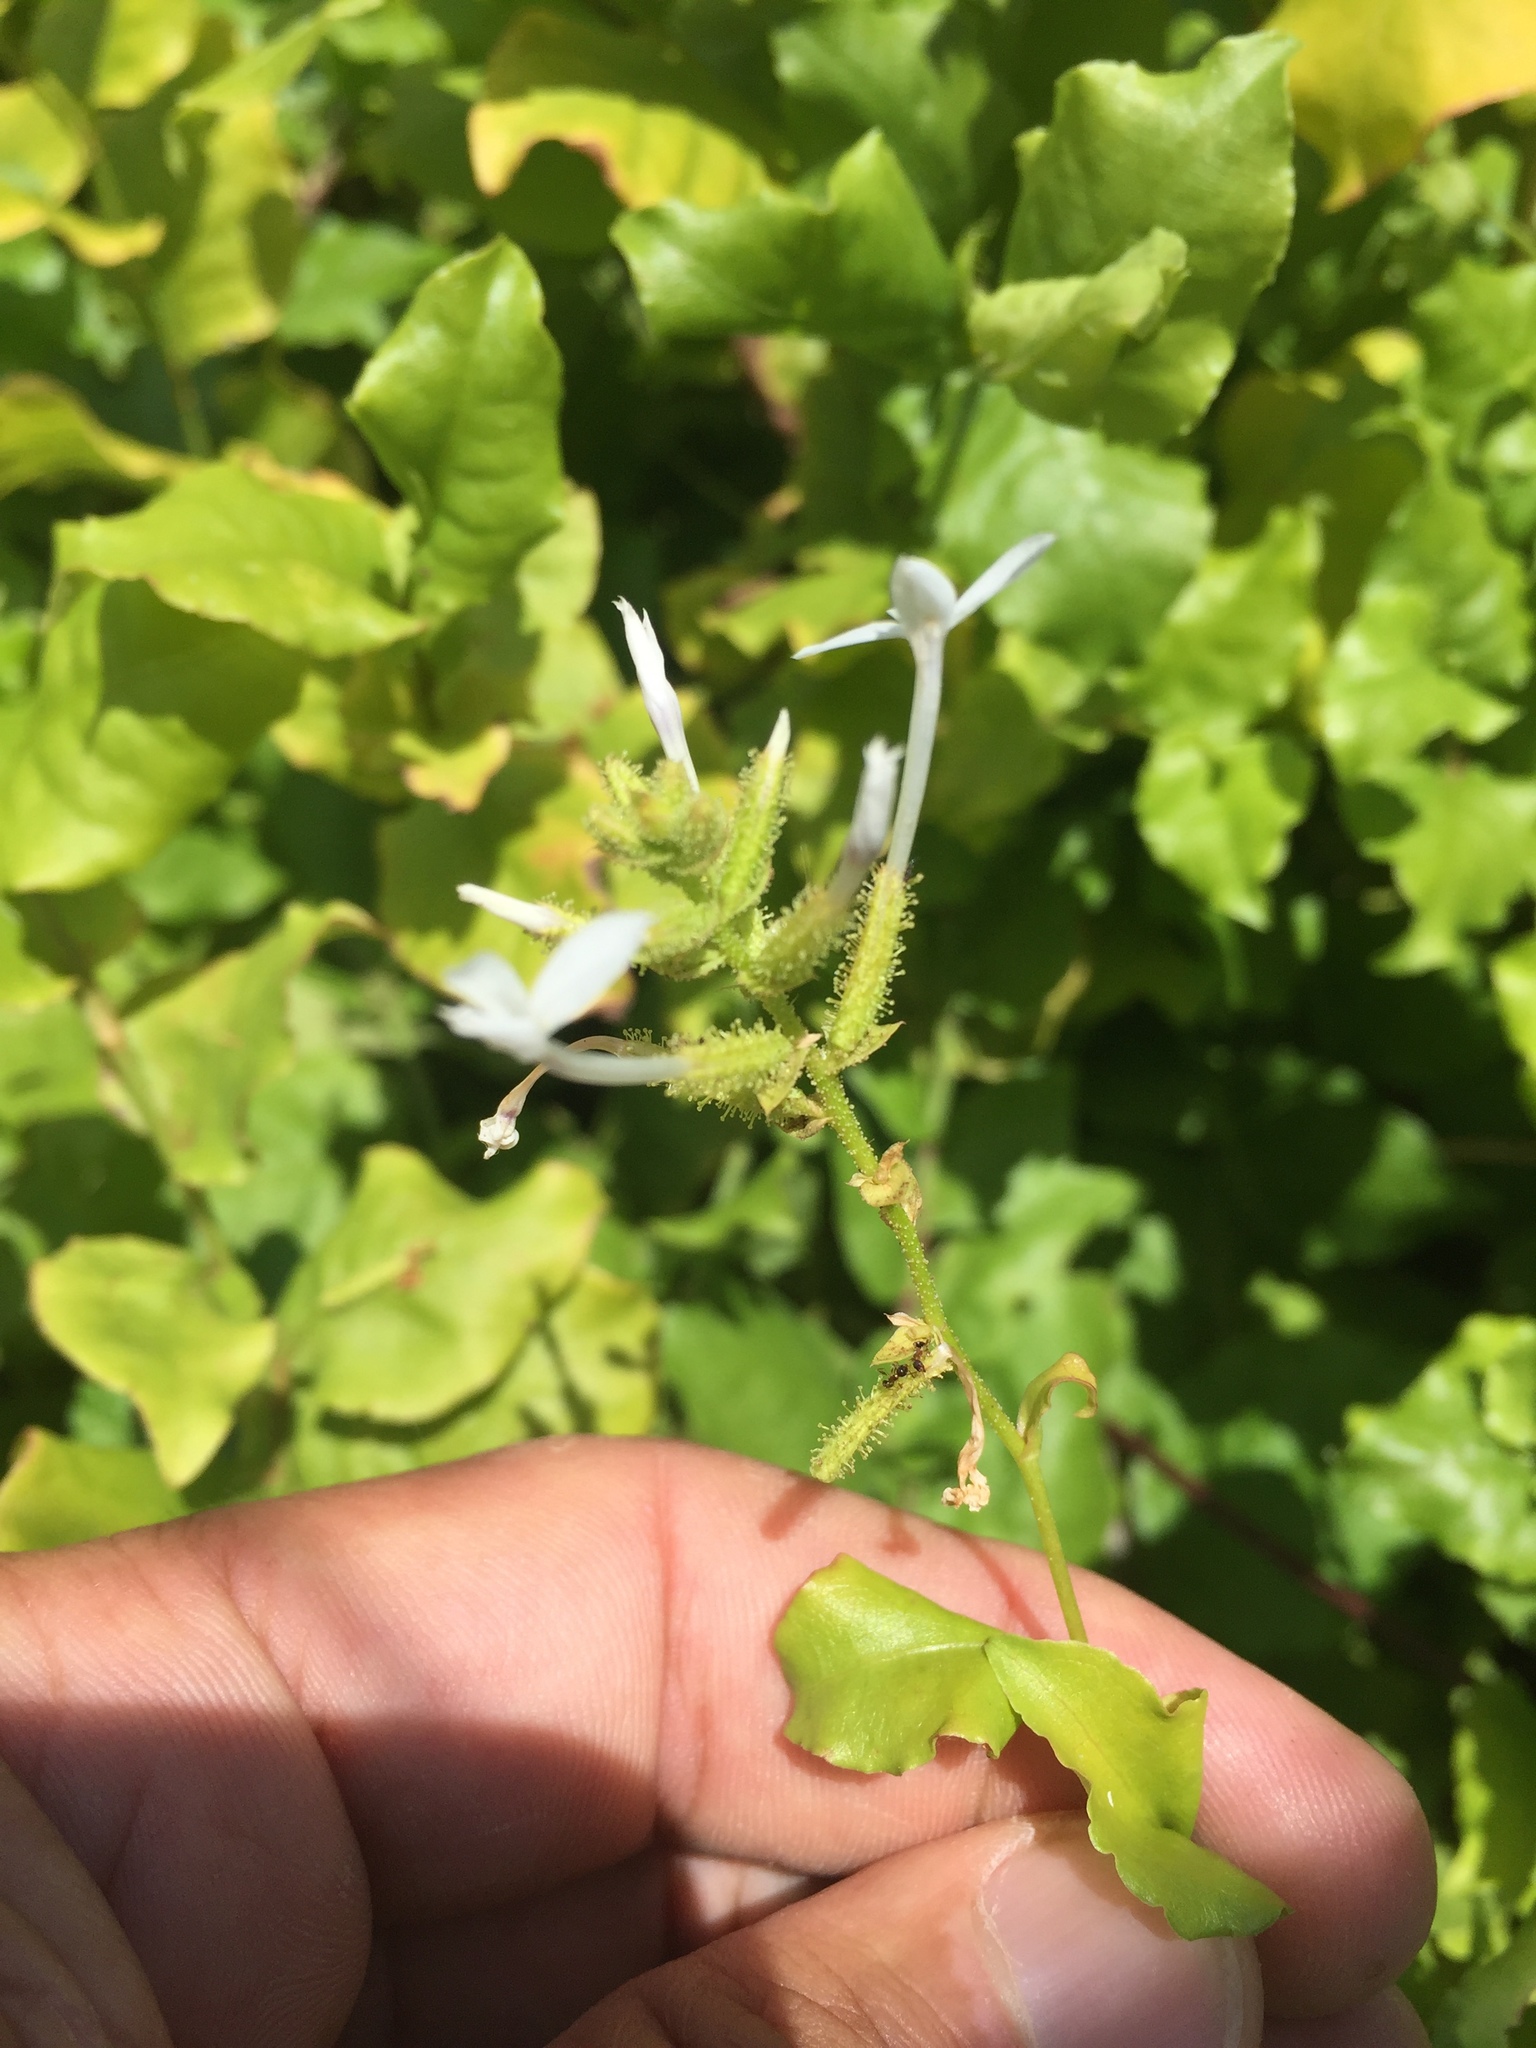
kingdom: Plantae
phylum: Tracheophyta
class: Magnoliopsida
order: Caryophyllales
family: Plumbaginaceae
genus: Plumbago
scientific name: Plumbago zeylanica
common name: Doctorbush
